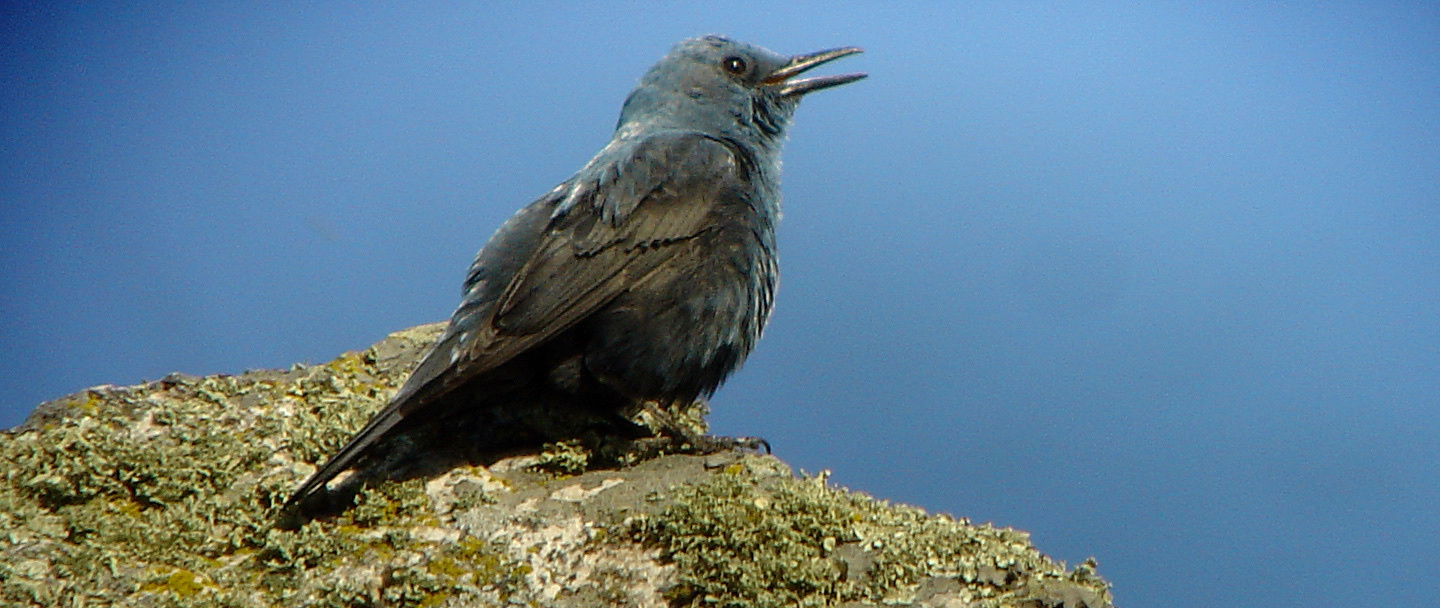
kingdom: Animalia
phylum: Chordata
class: Aves
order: Passeriformes
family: Muscicapidae
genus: Monticola
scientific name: Monticola solitarius
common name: Blue rock thrush
